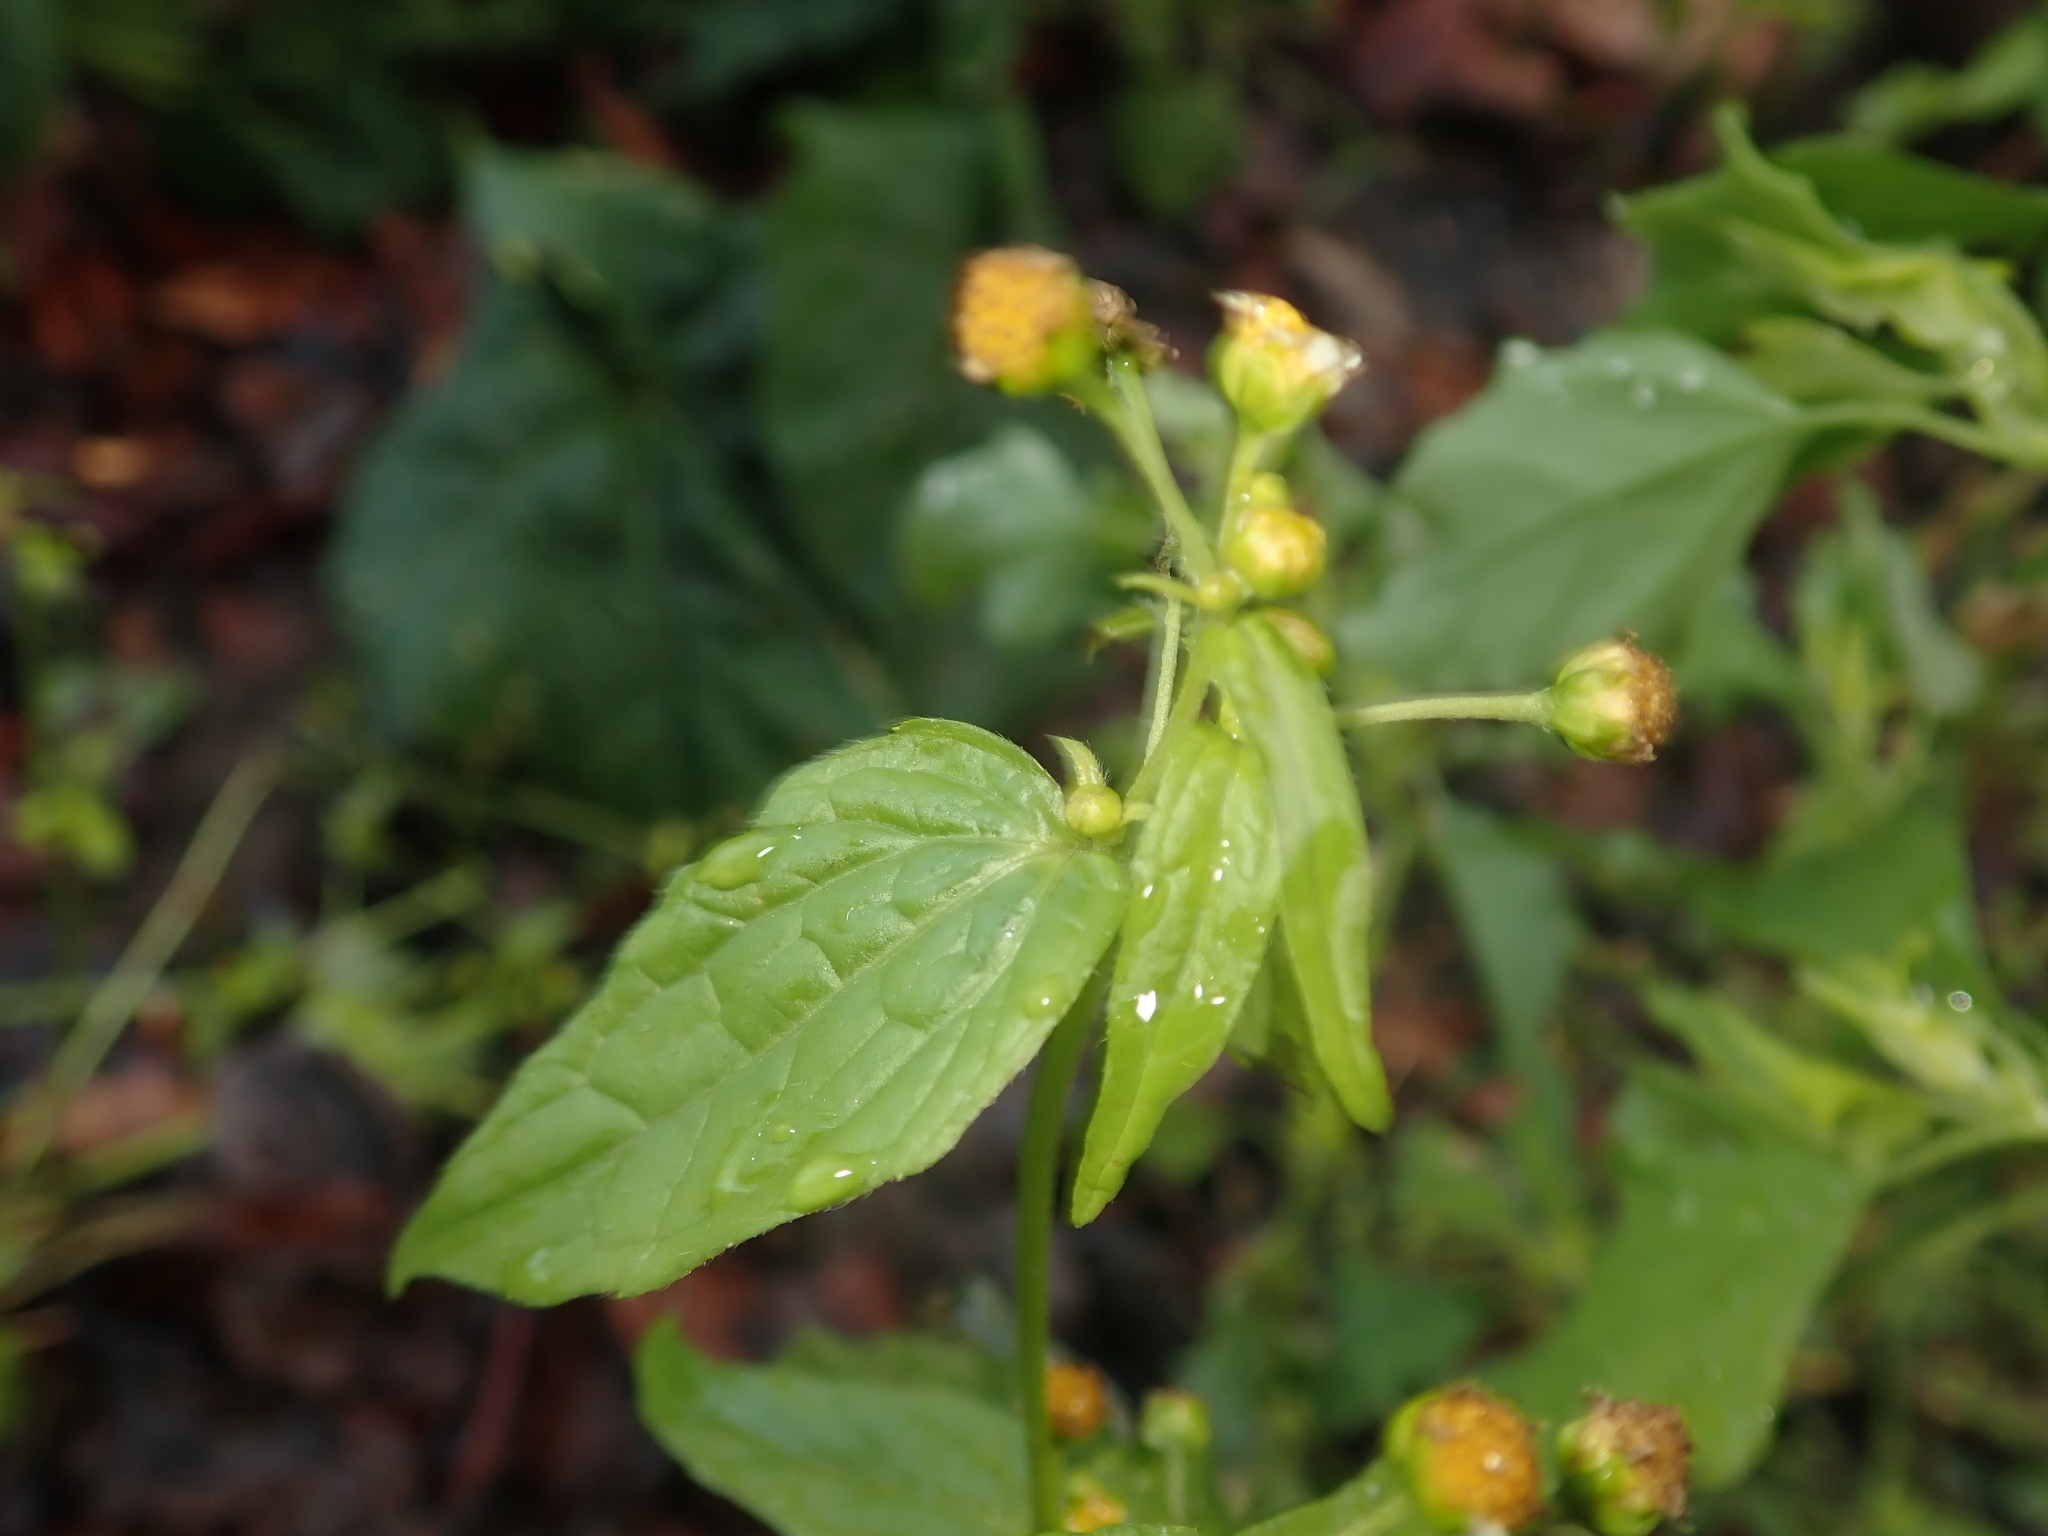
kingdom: Plantae
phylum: Tracheophyta
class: Magnoliopsida
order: Asterales
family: Asteraceae
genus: Galinsoga
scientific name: Galinsoga parviflora
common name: Gallant soldier
